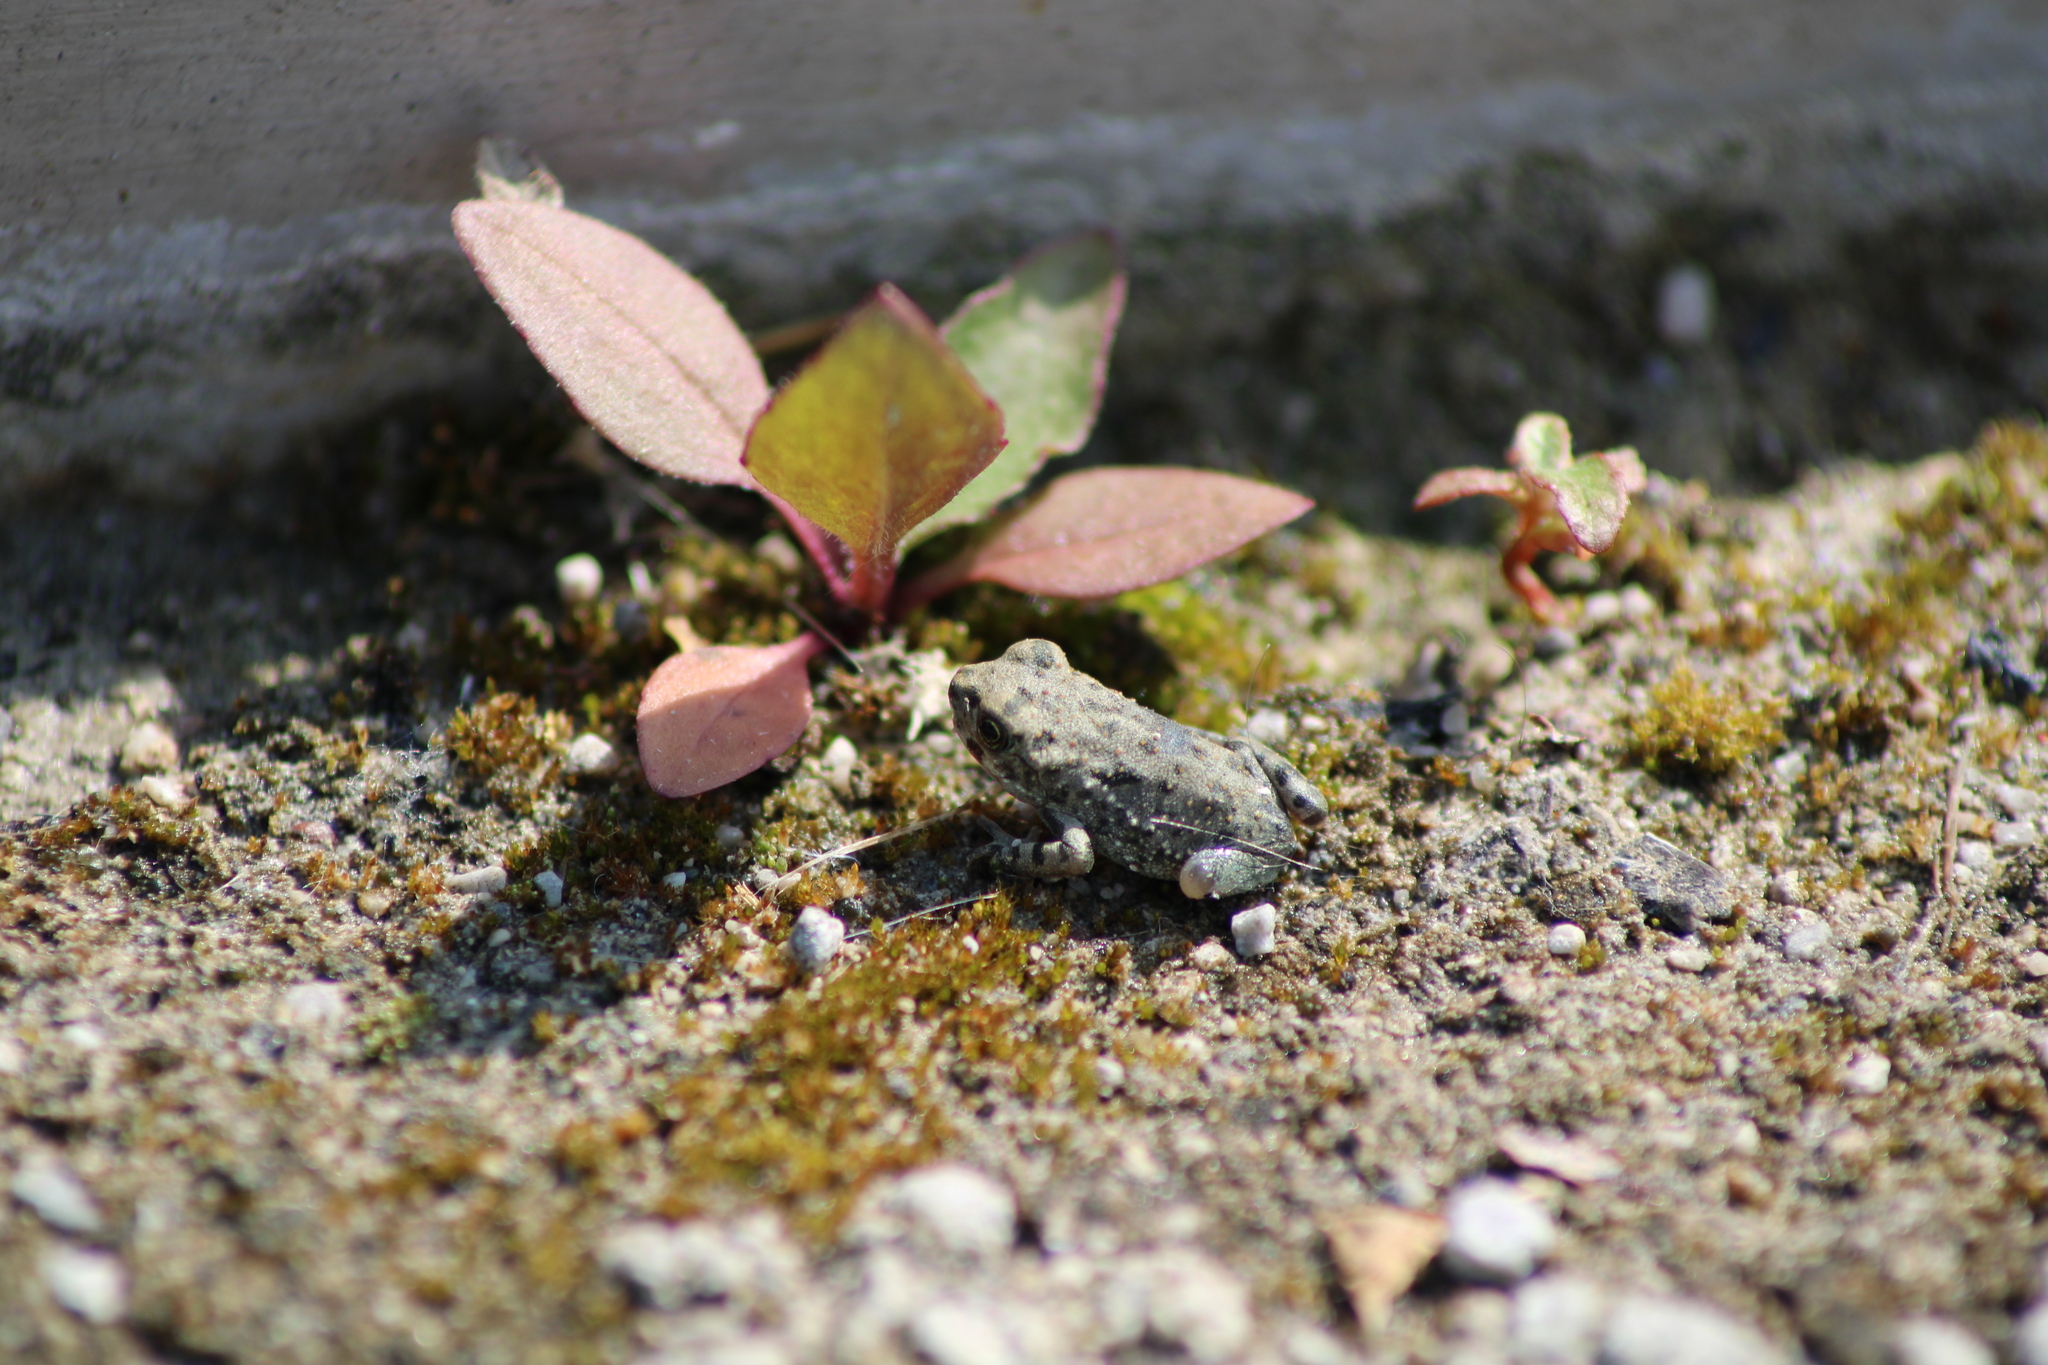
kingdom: Animalia
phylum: Chordata
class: Amphibia
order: Anura
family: Bufonidae
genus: Bufotes
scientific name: Bufotes viridis
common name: European green toad
